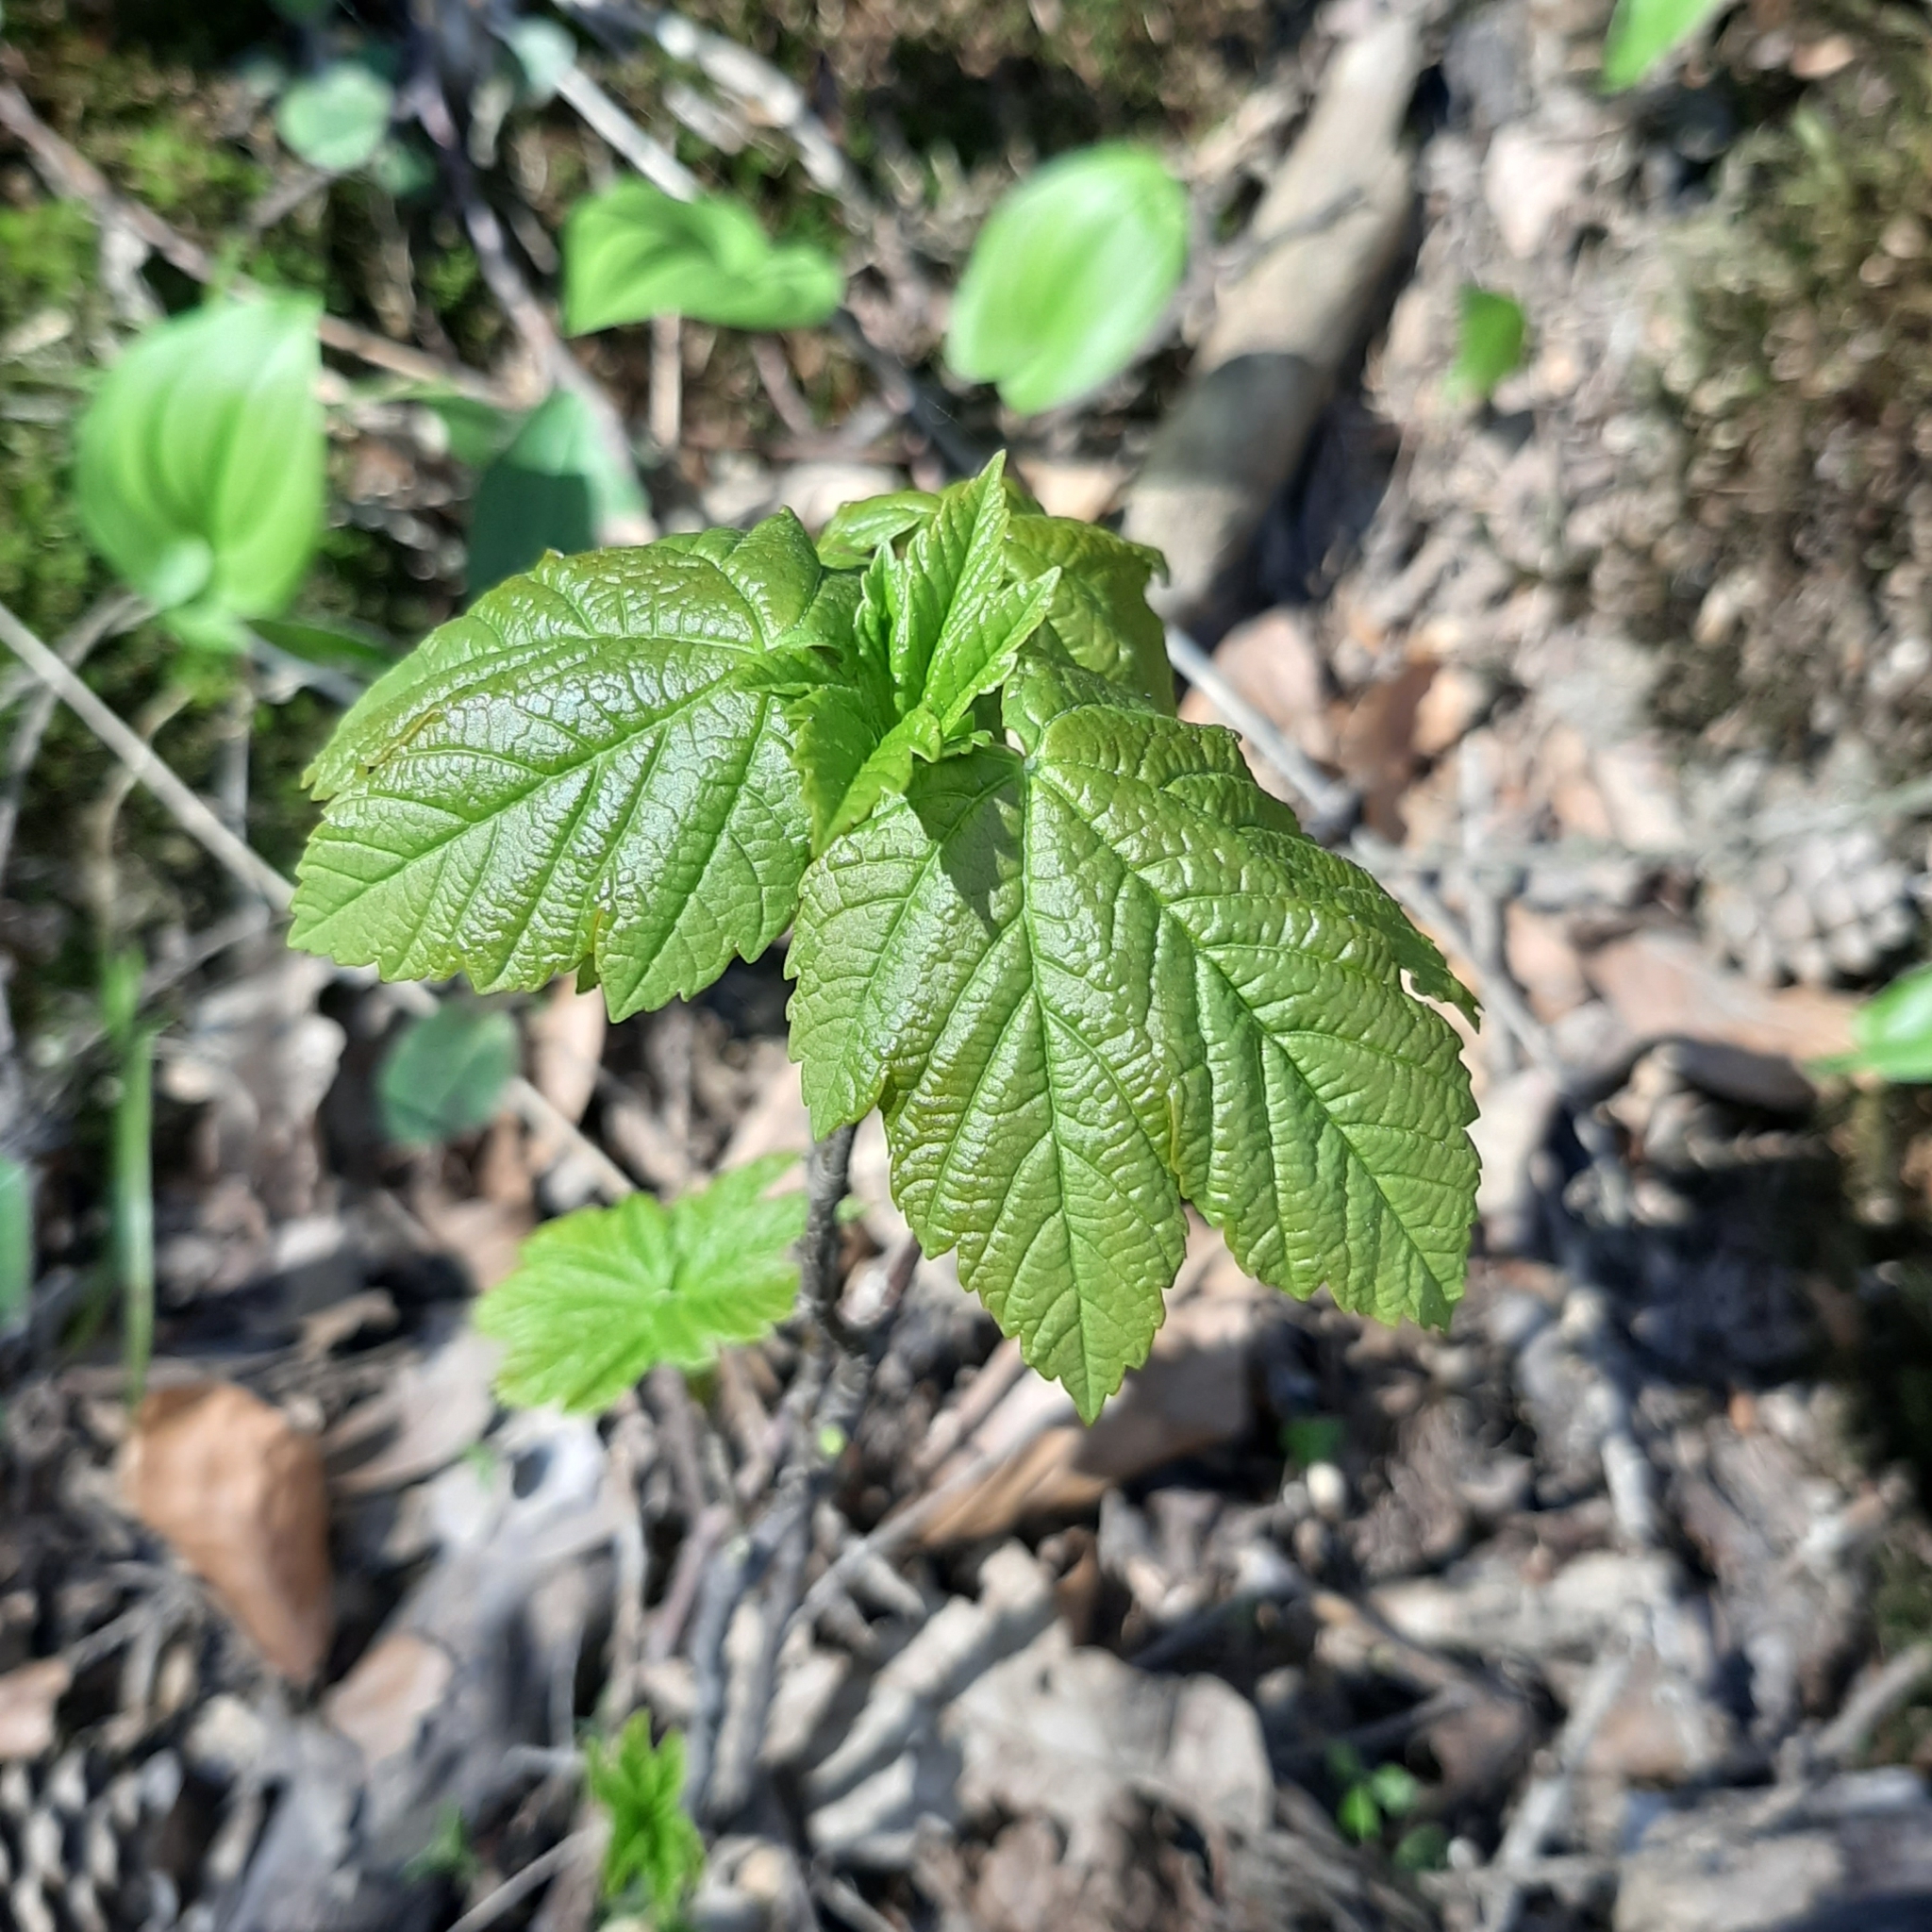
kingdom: Plantae
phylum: Tracheophyta
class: Magnoliopsida
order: Sapindales
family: Sapindaceae
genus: Acer
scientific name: Acer pseudoplatanus
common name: Sycamore
